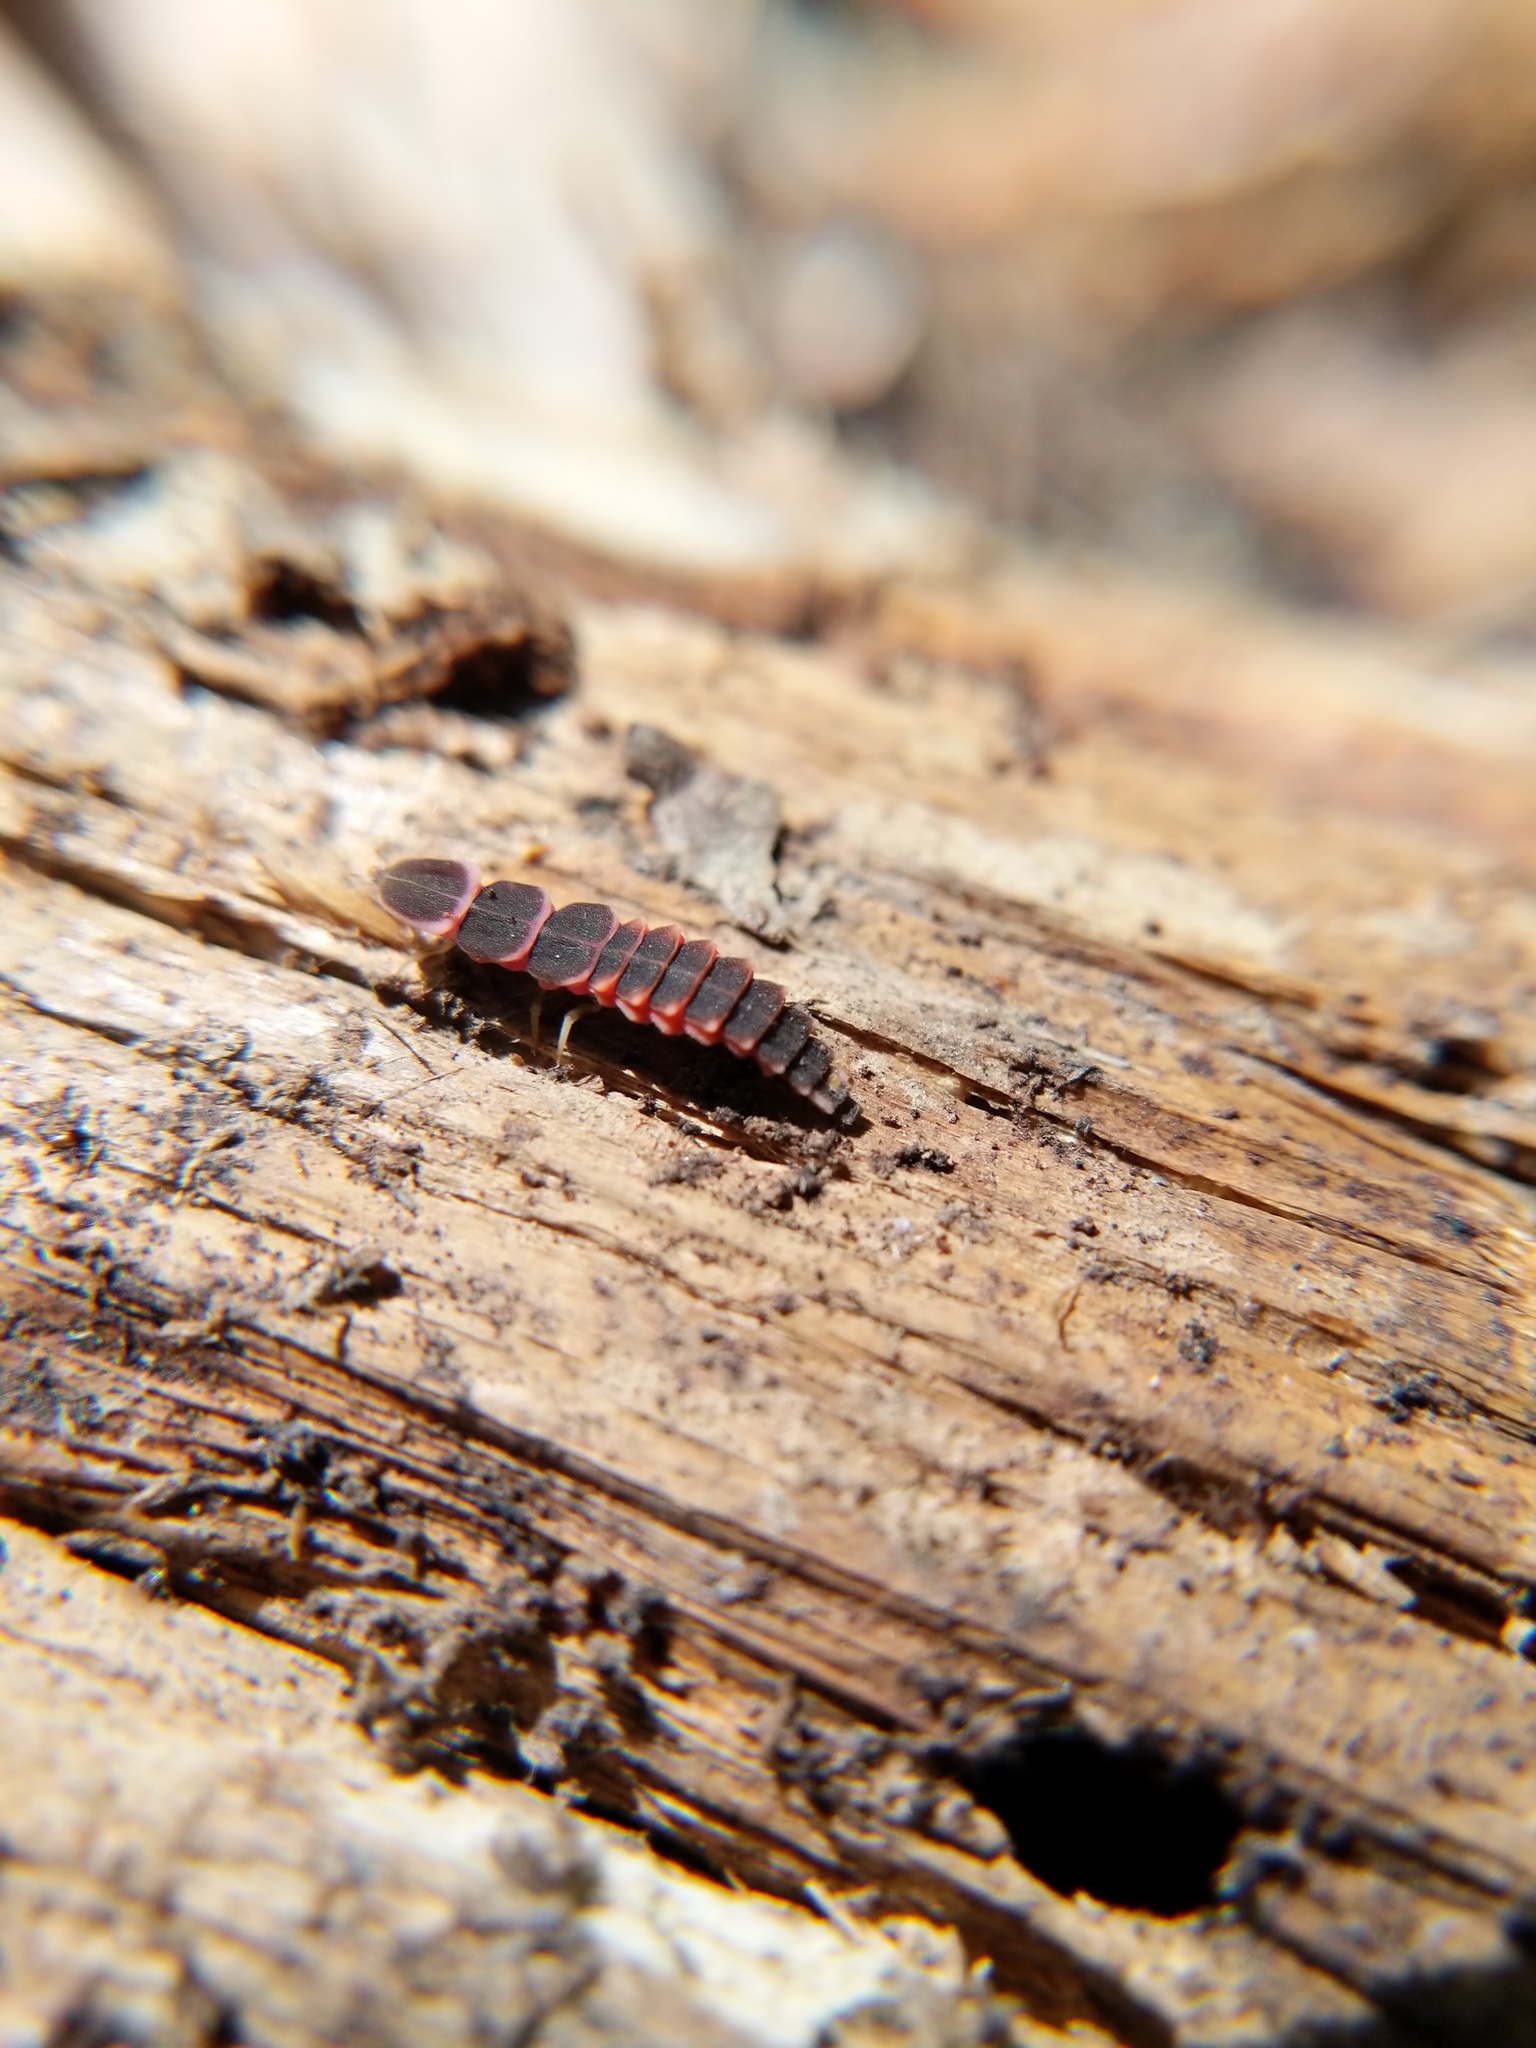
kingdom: Animalia
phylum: Arthropoda
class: Insecta
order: Coleoptera
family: Lampyridae
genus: Microphotus
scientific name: Microphotus
